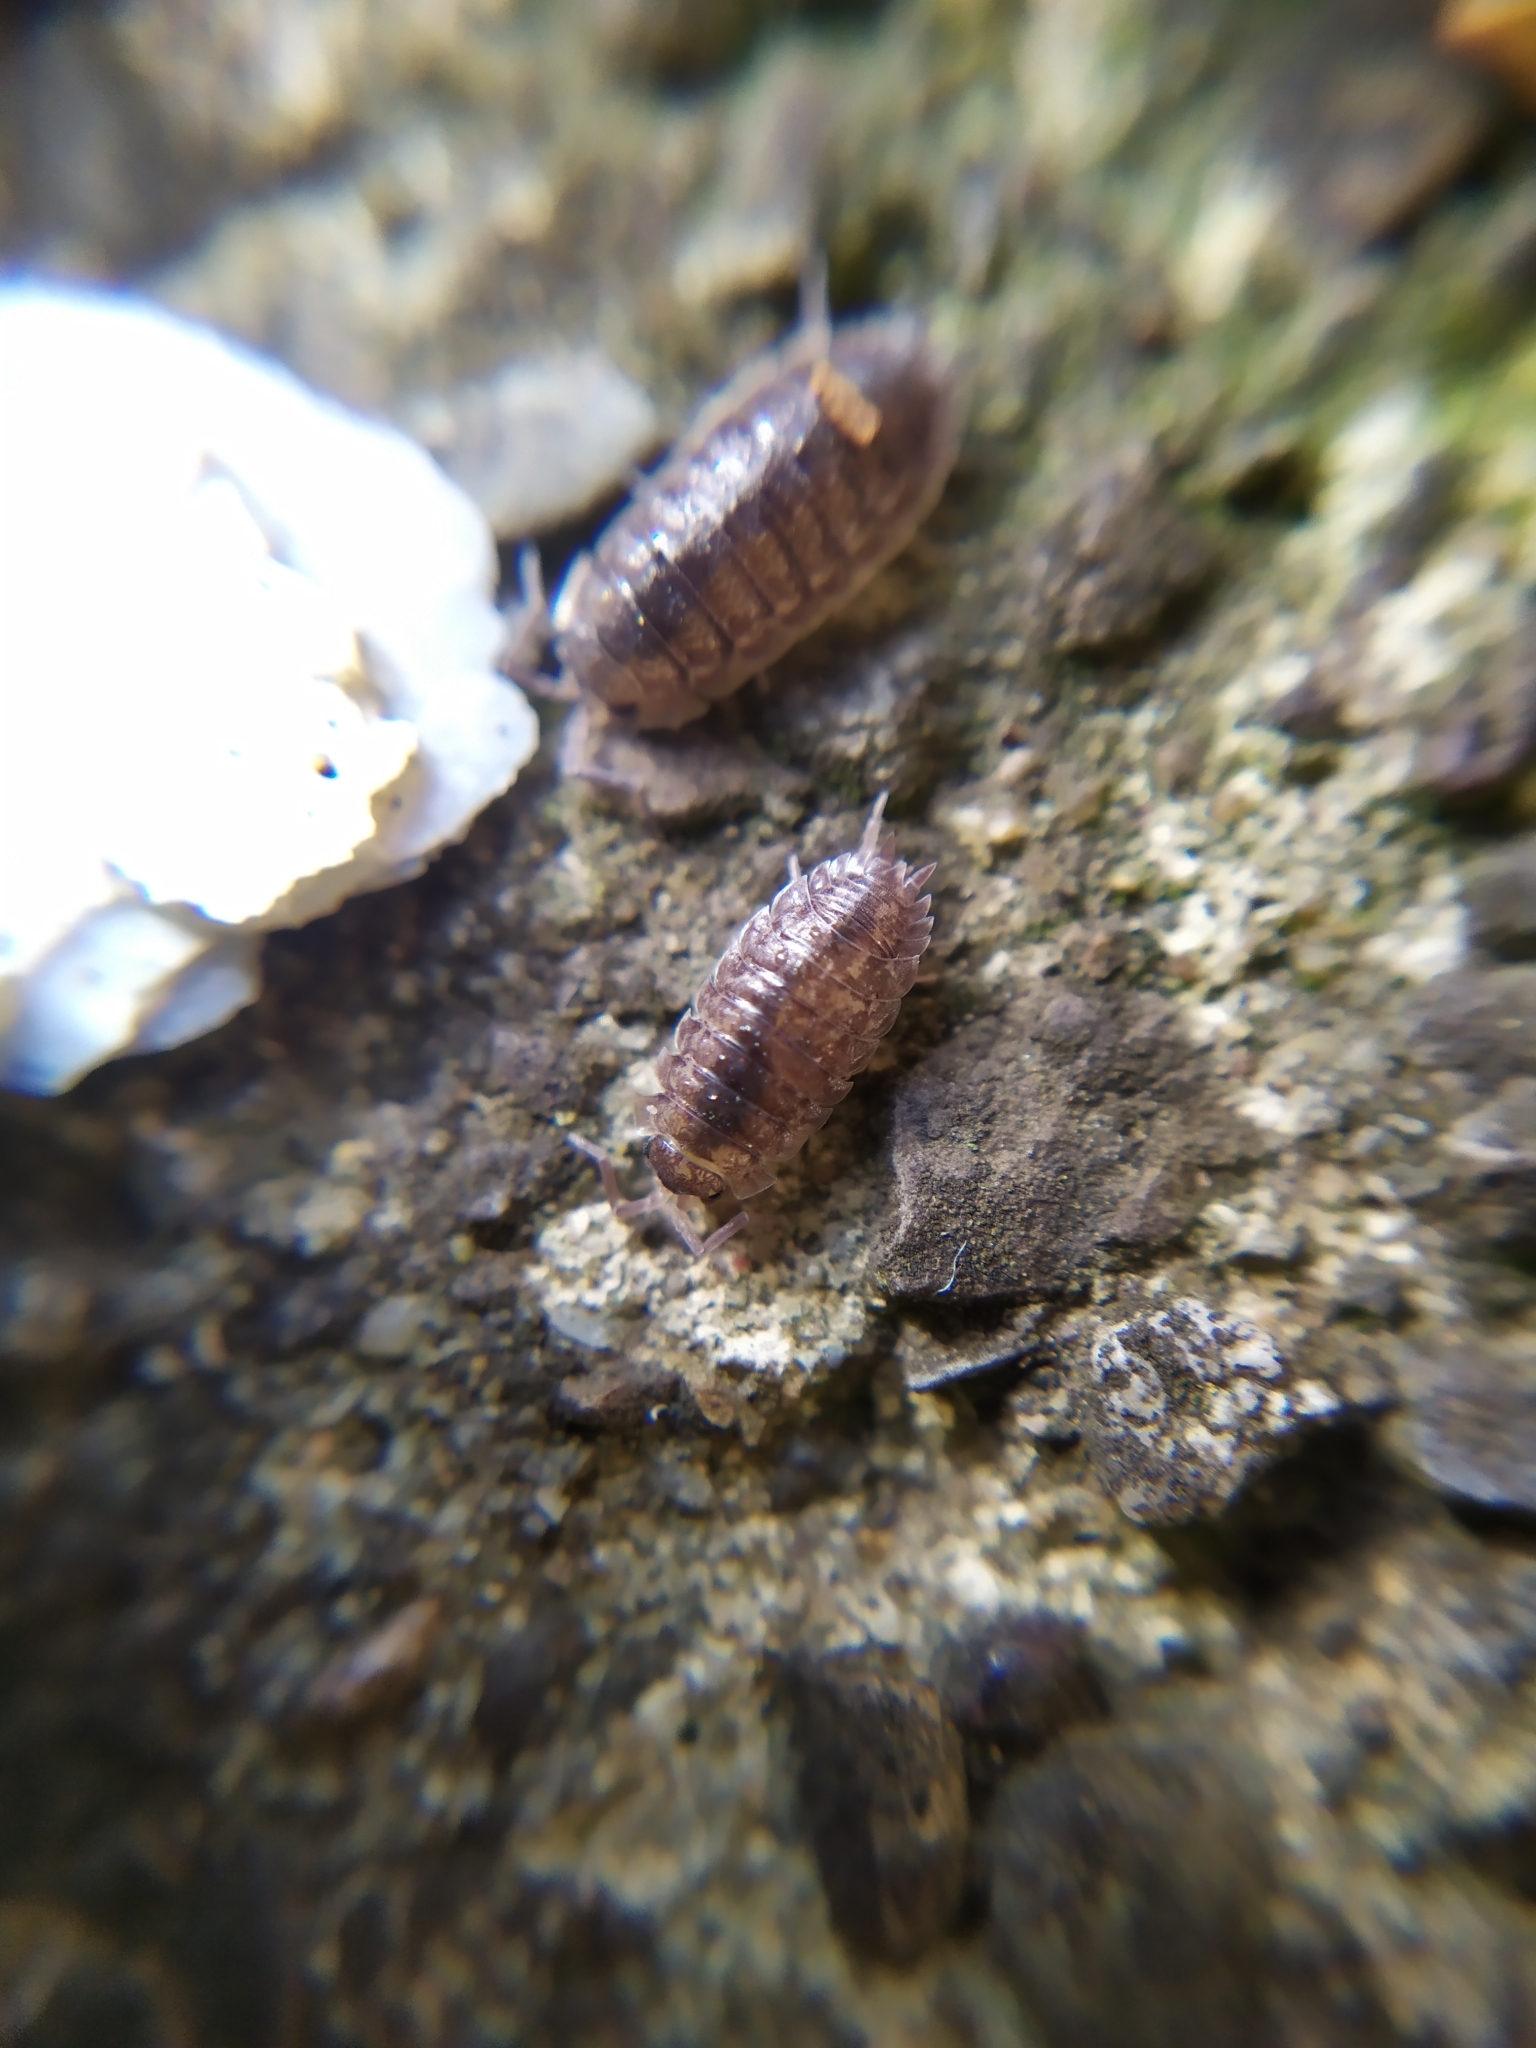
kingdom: Animalia
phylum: Arthropoda
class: Malacostraca
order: Isopoda
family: Porcellionidae
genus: Porcellio
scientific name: Porcellio scaber
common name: Common rough woodlouse
